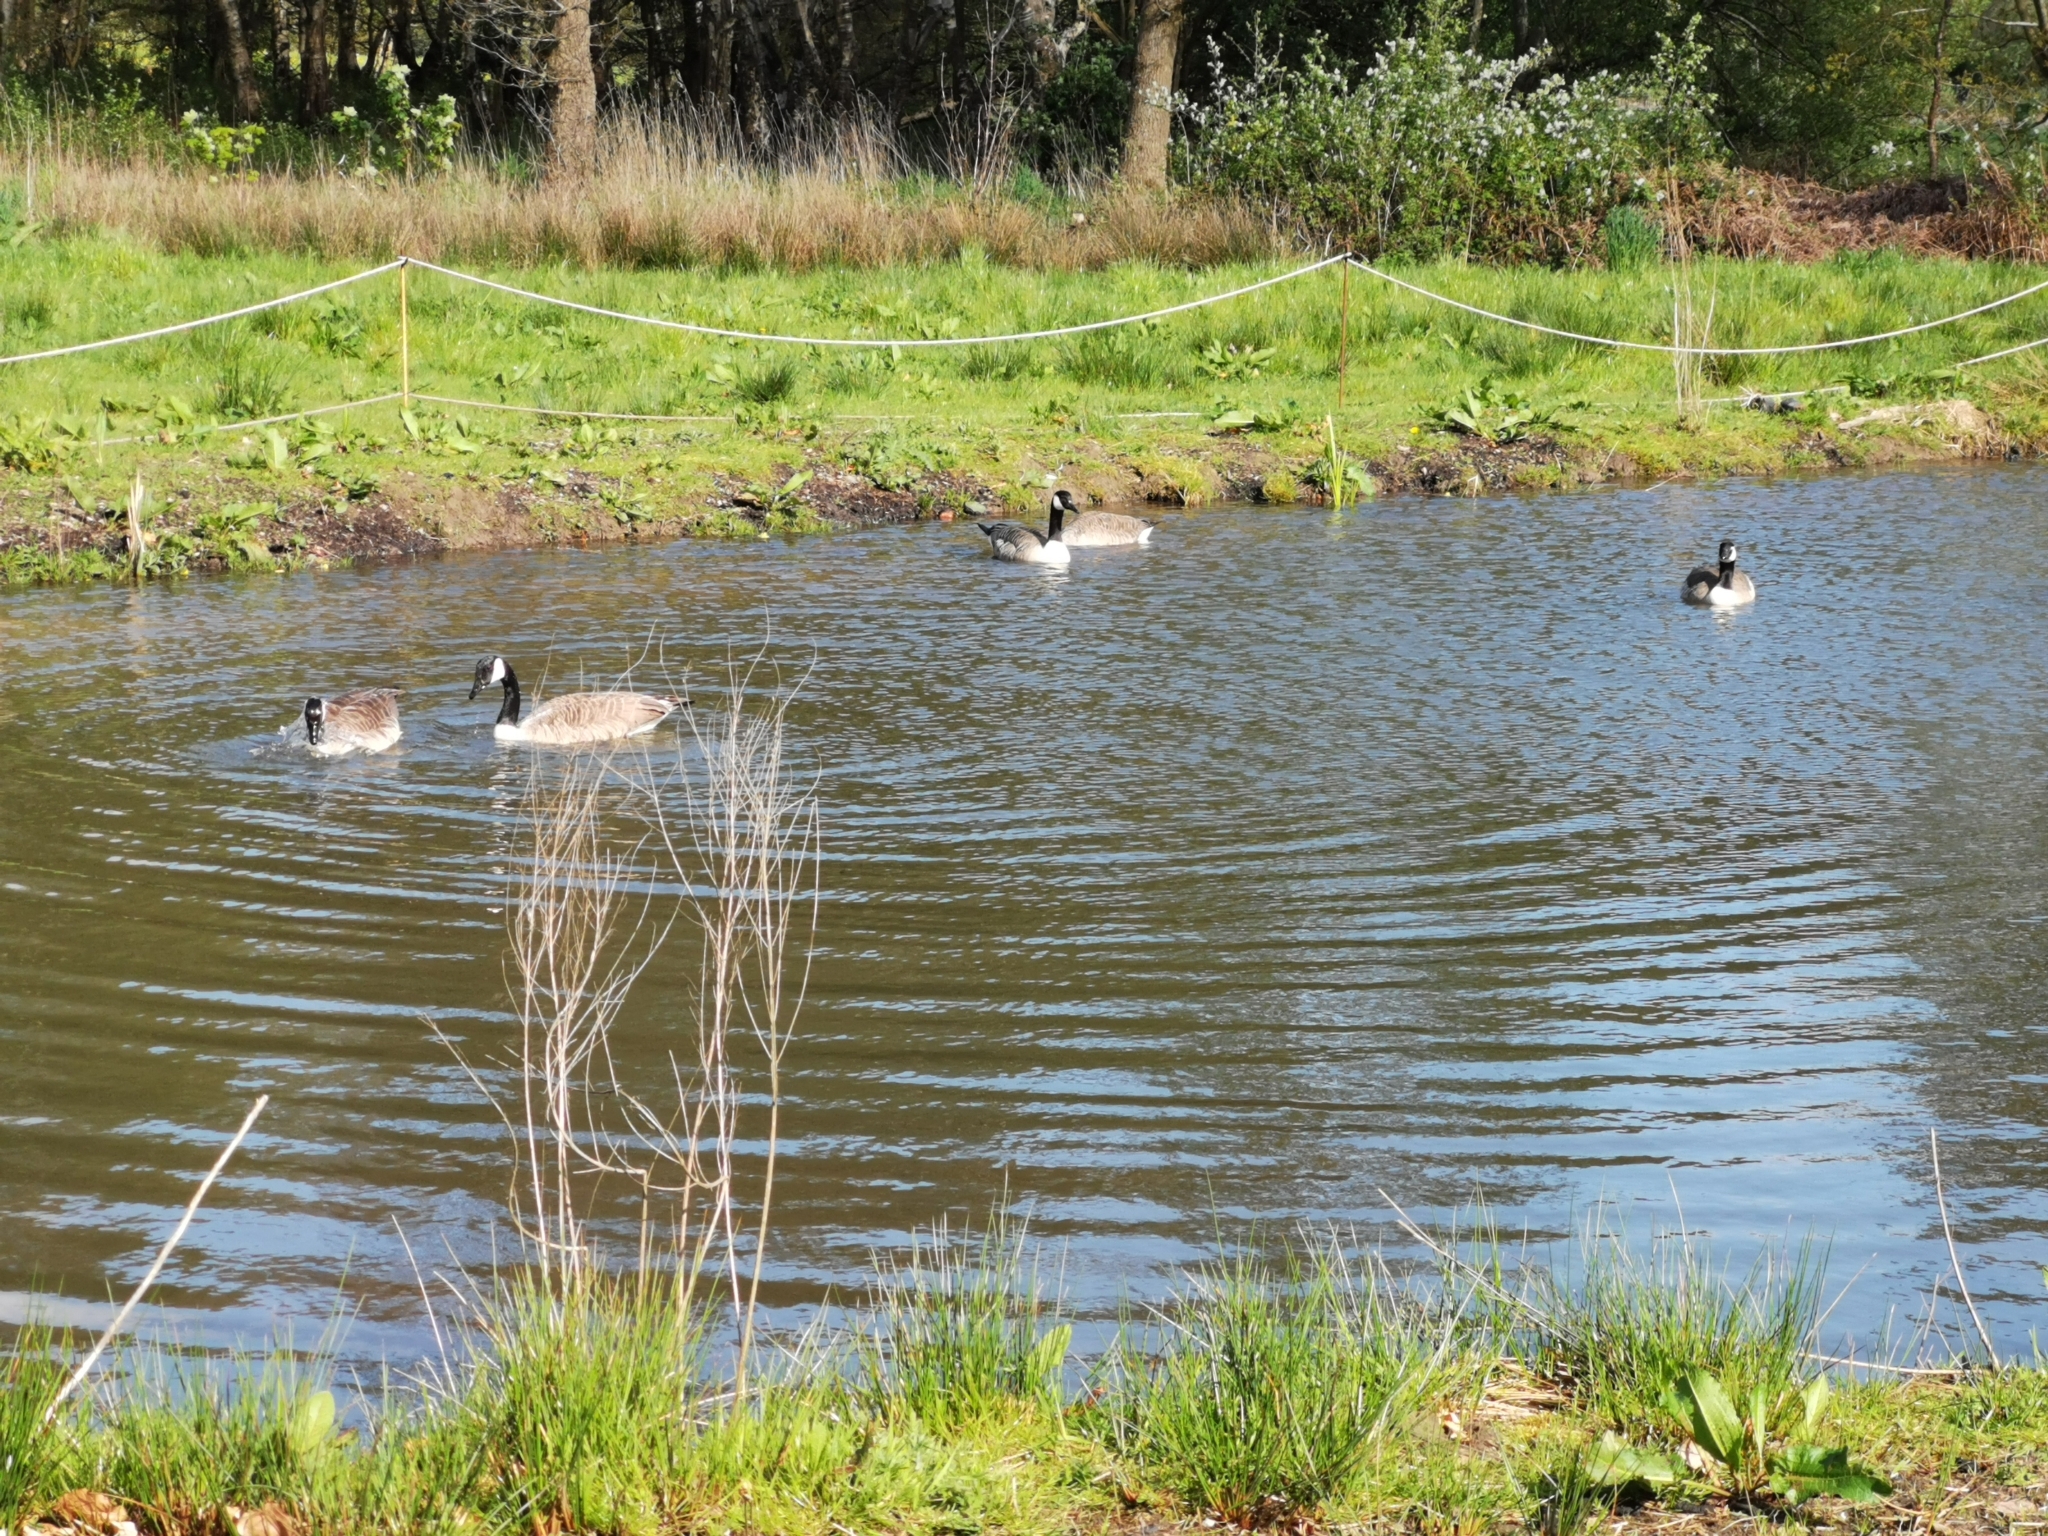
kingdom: Animalia
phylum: Chordata
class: Aves
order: Anseriformes
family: Anatidae
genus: Branta
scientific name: Branta canadensis
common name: Canada goose
